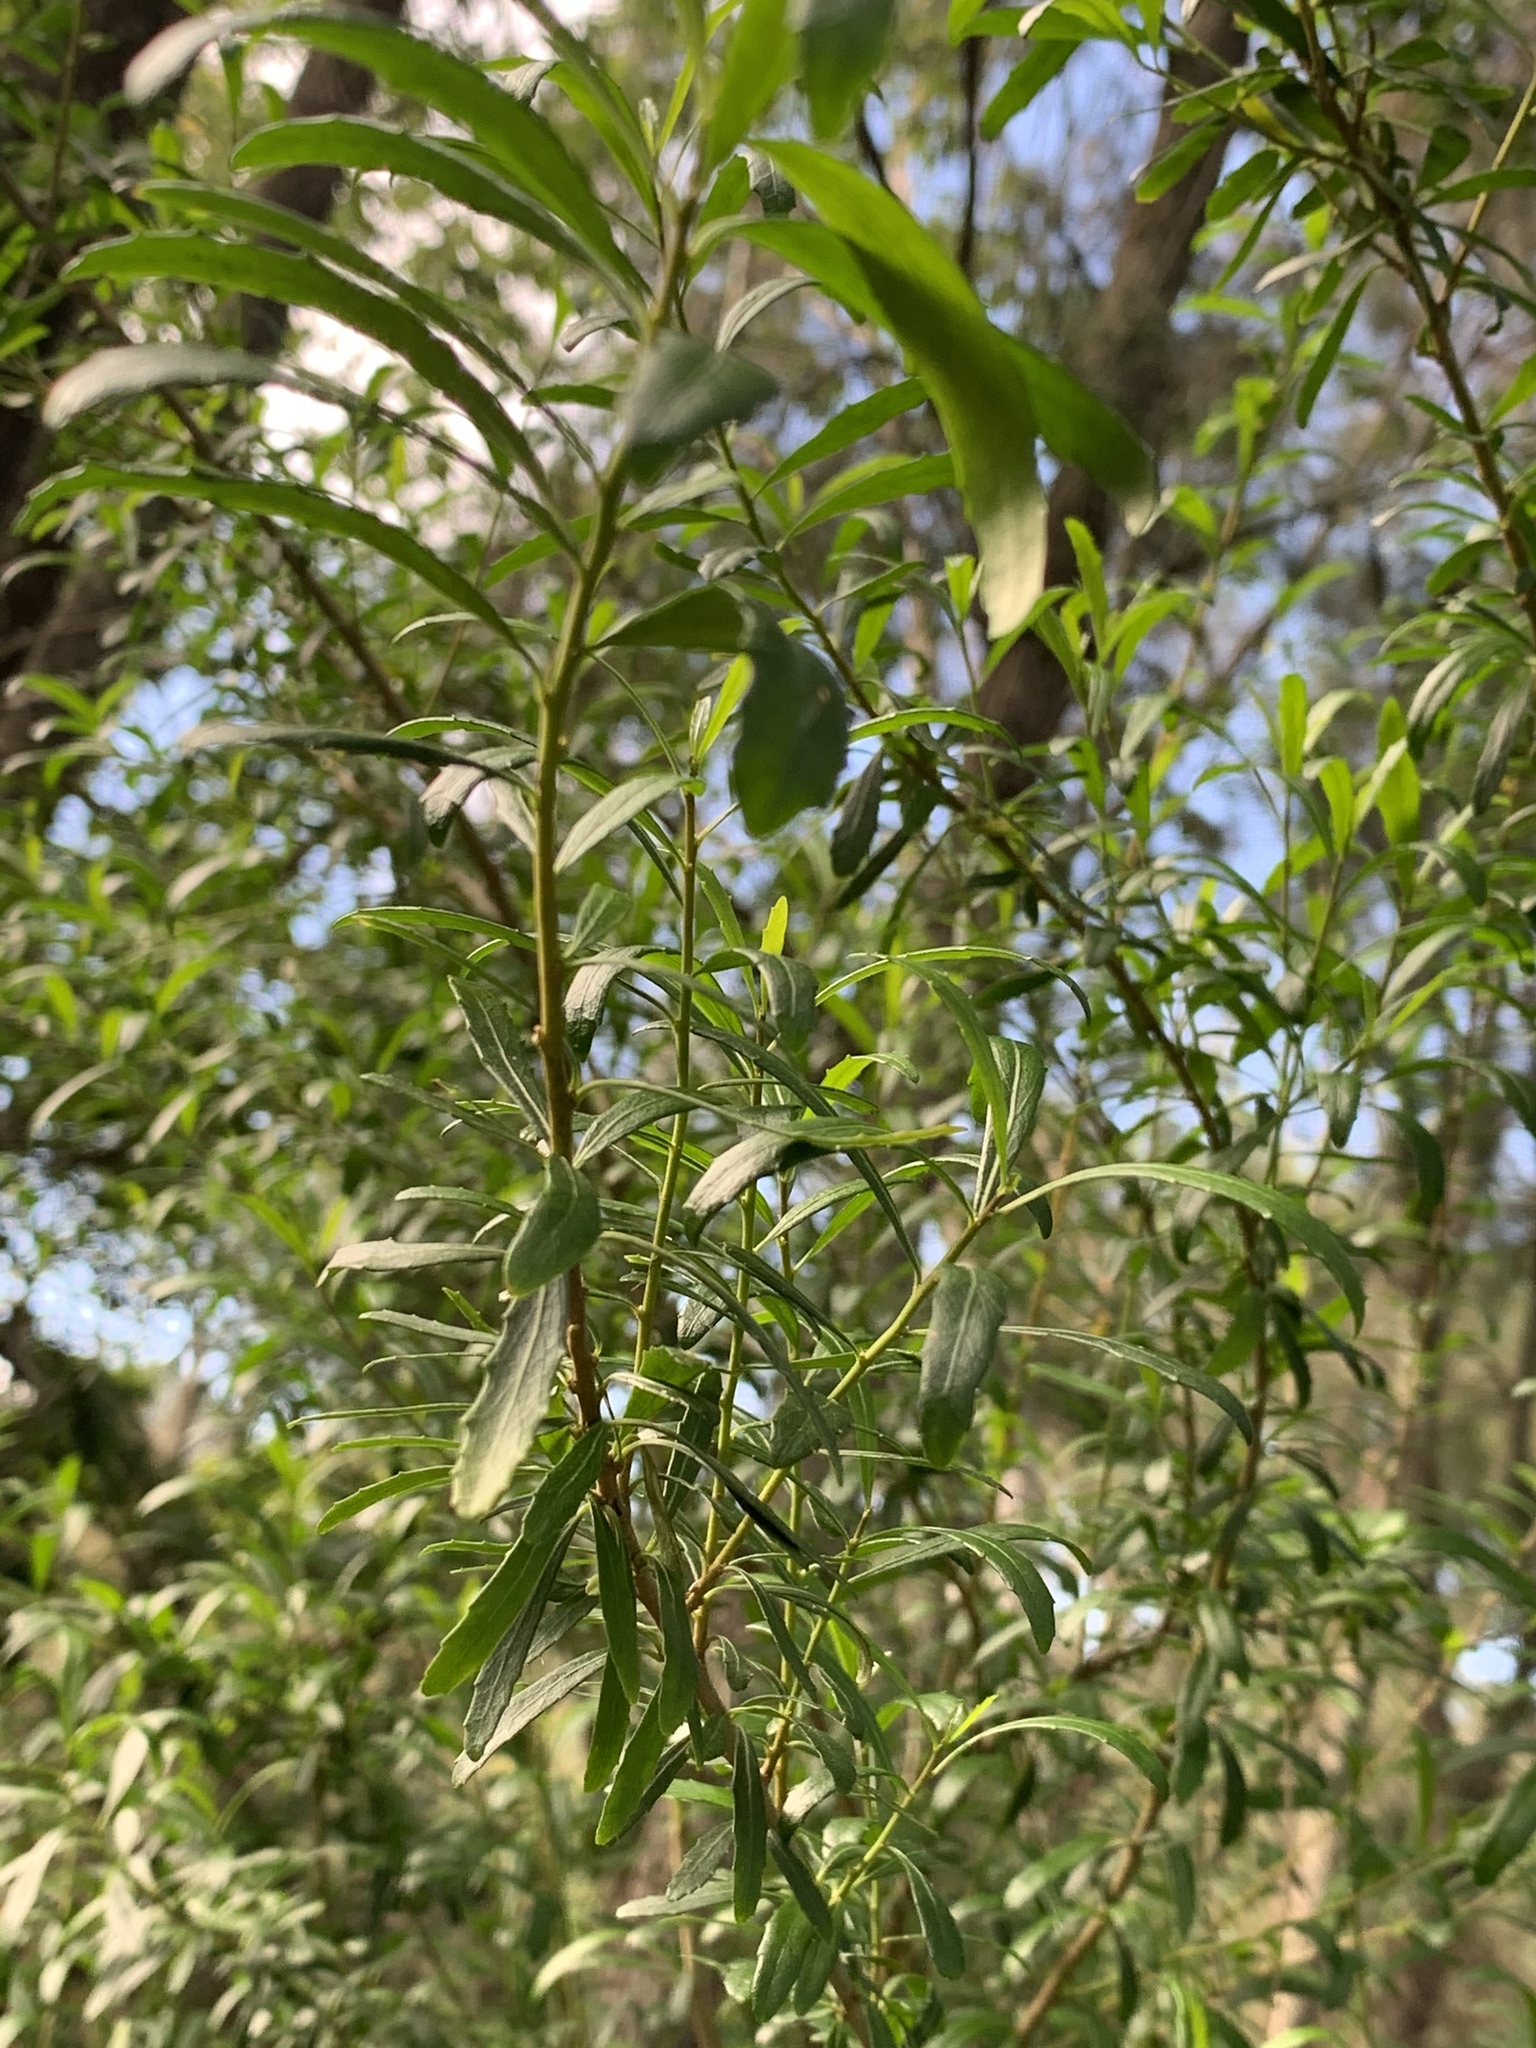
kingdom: Plantae
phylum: Tracheophyta
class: Magnoliopsida
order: Malpighiales
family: Violaceae
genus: Melicytus
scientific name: Melicytus dentatus
